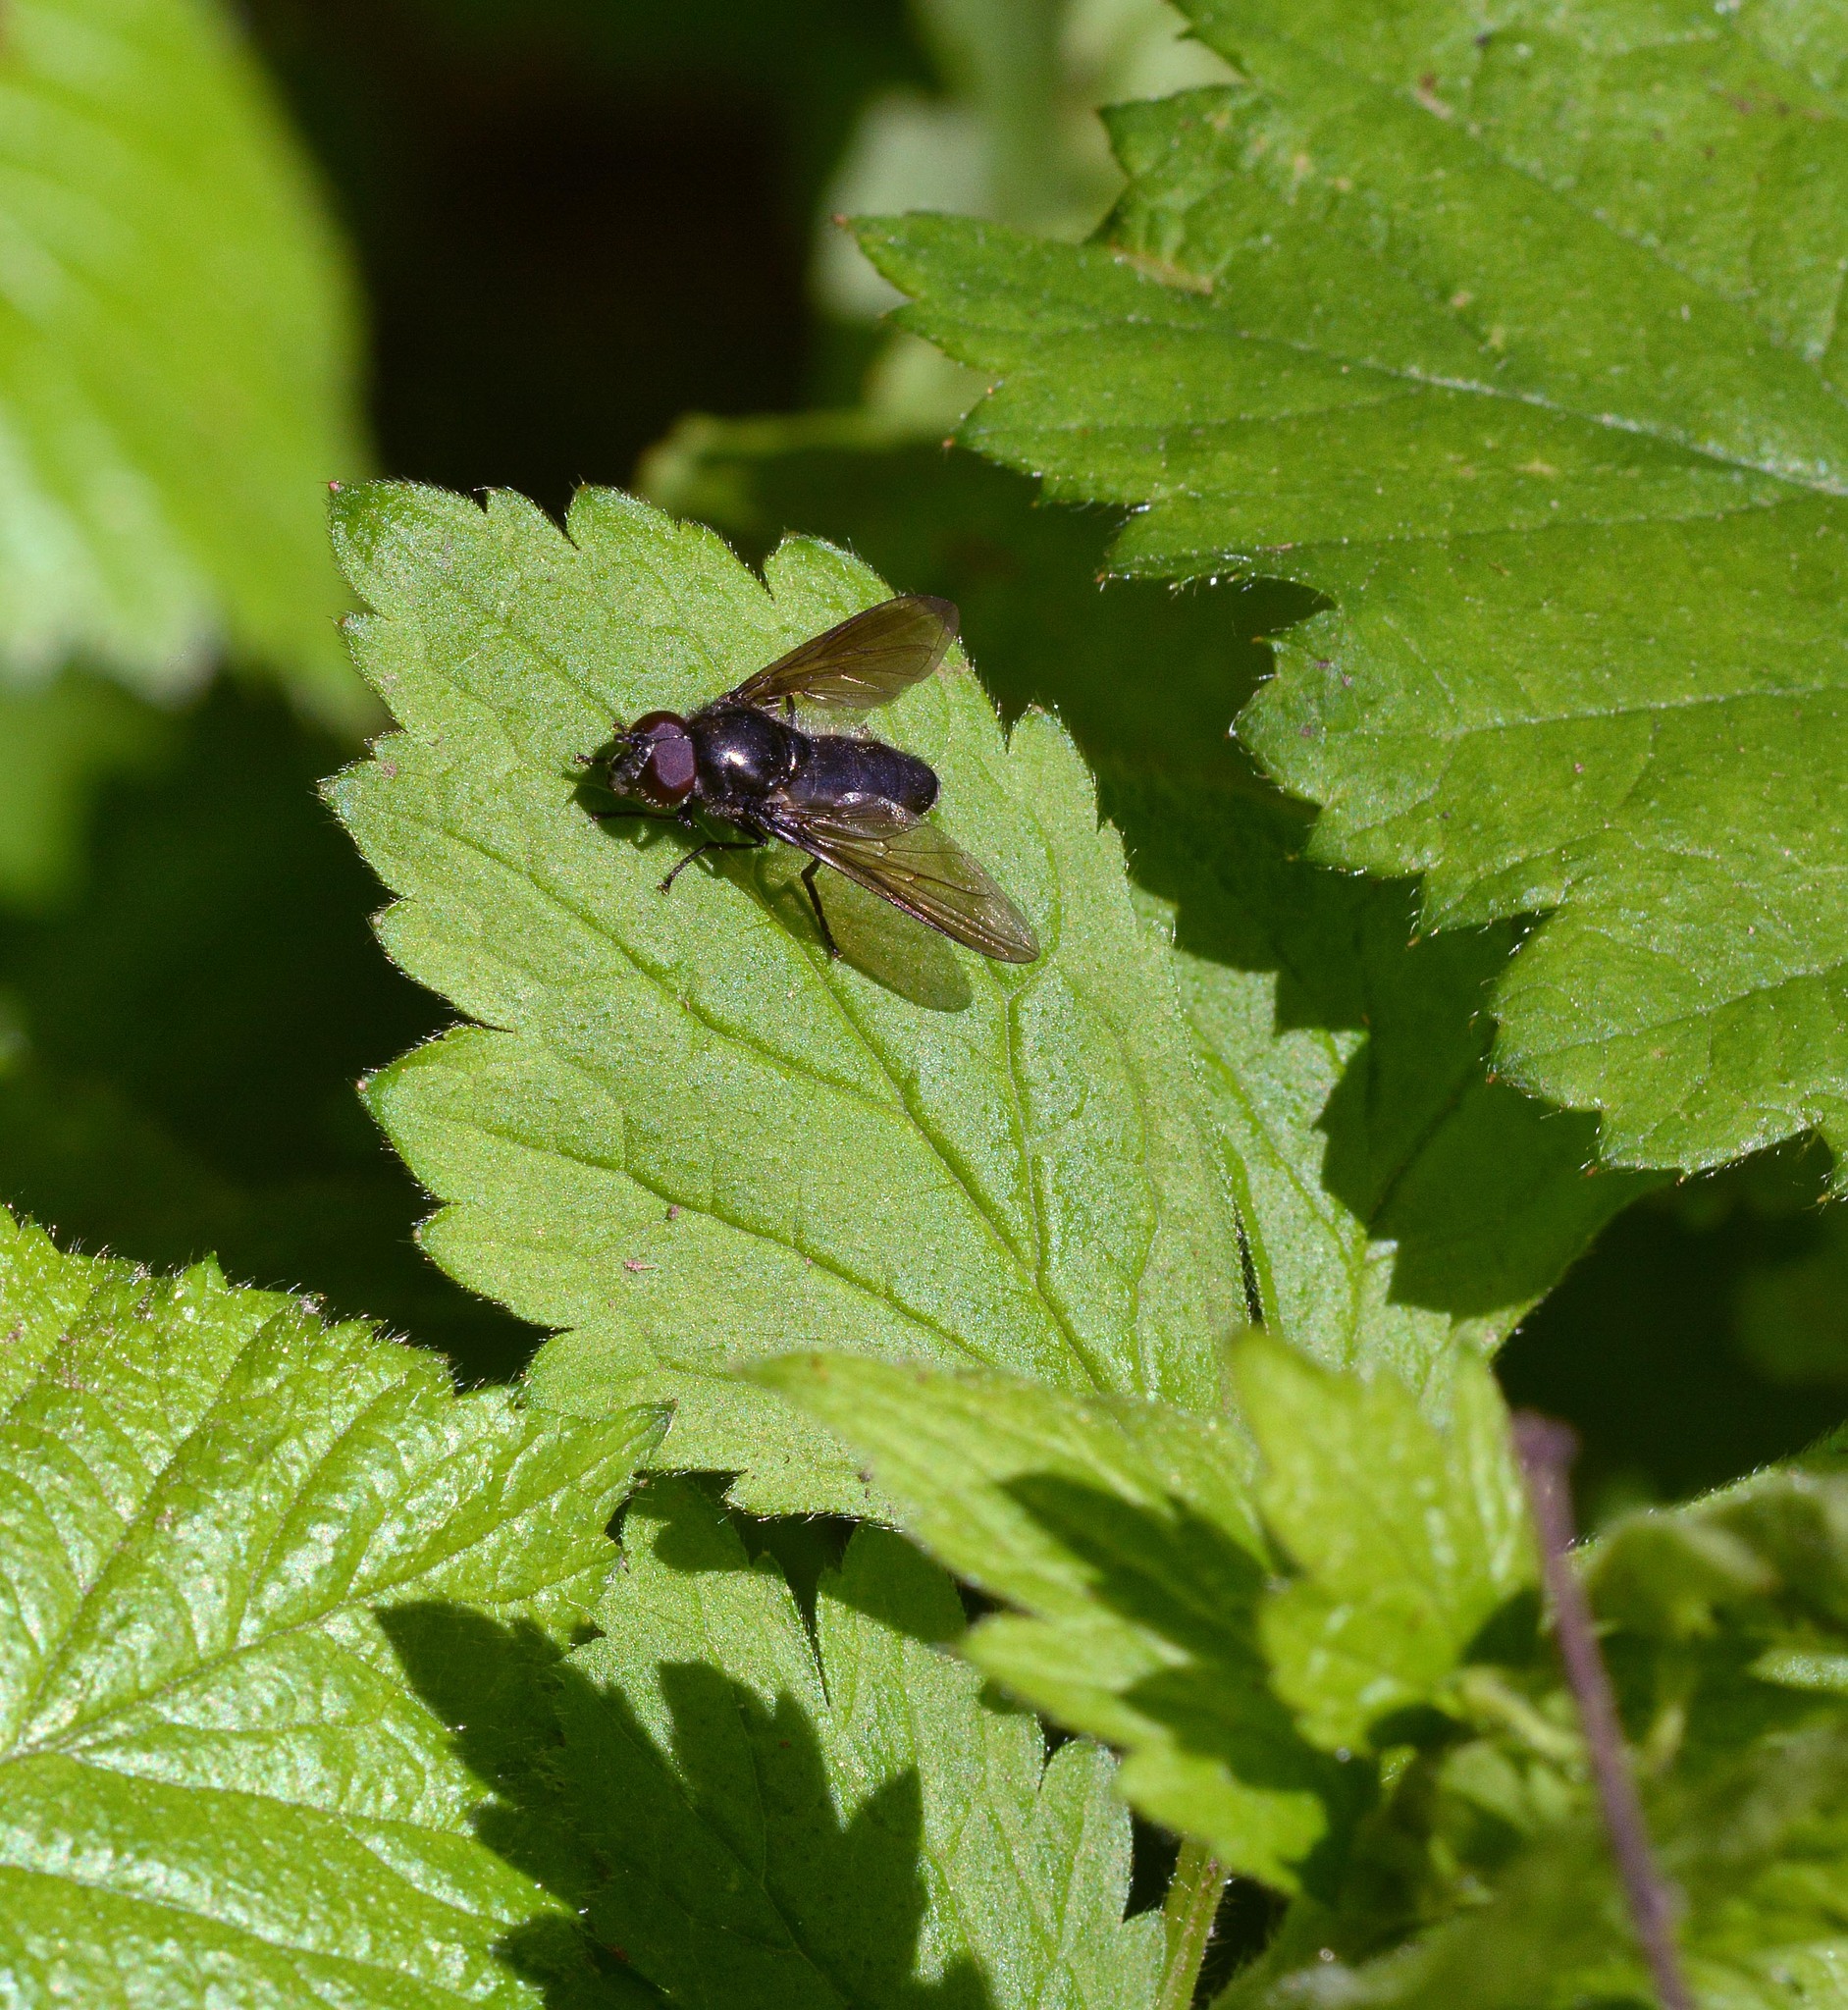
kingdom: Animalia
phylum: Arthropoda
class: Insecta
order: Diptera
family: Syrphidae
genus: Cheilosia
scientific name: Cheilosia variabilis
